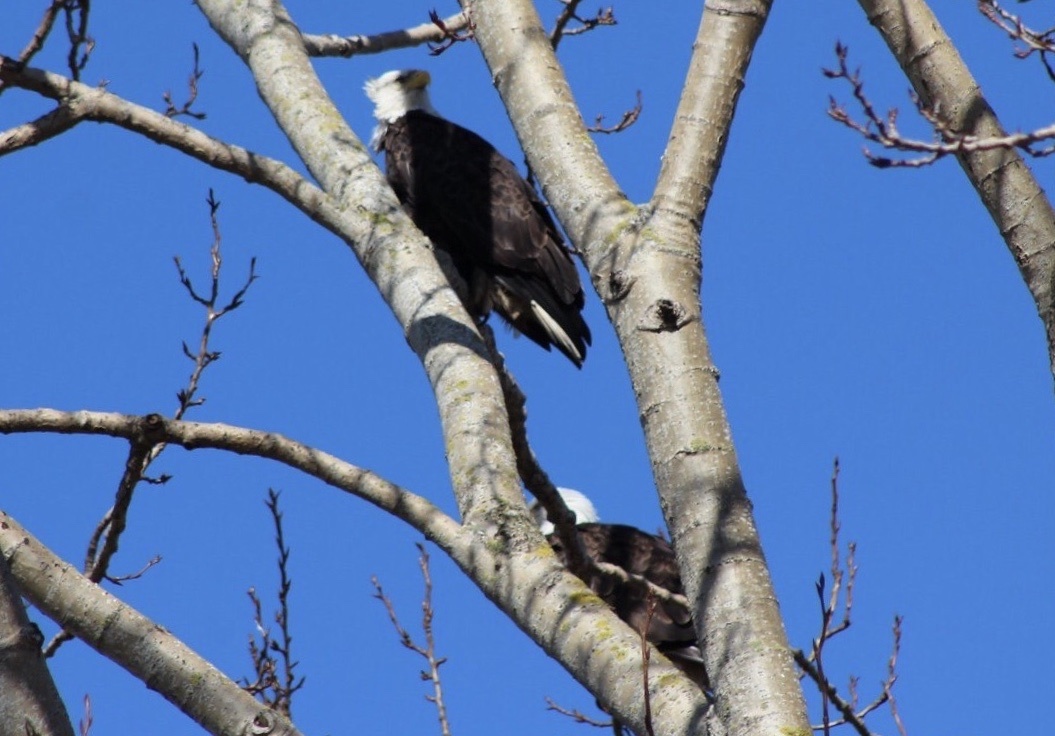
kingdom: Animalia
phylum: Chordata
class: Aves
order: Accipitriformes
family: Accipitridae
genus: Haliaeetus
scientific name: Haliaeetus leucocephalus
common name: Bald eagle
